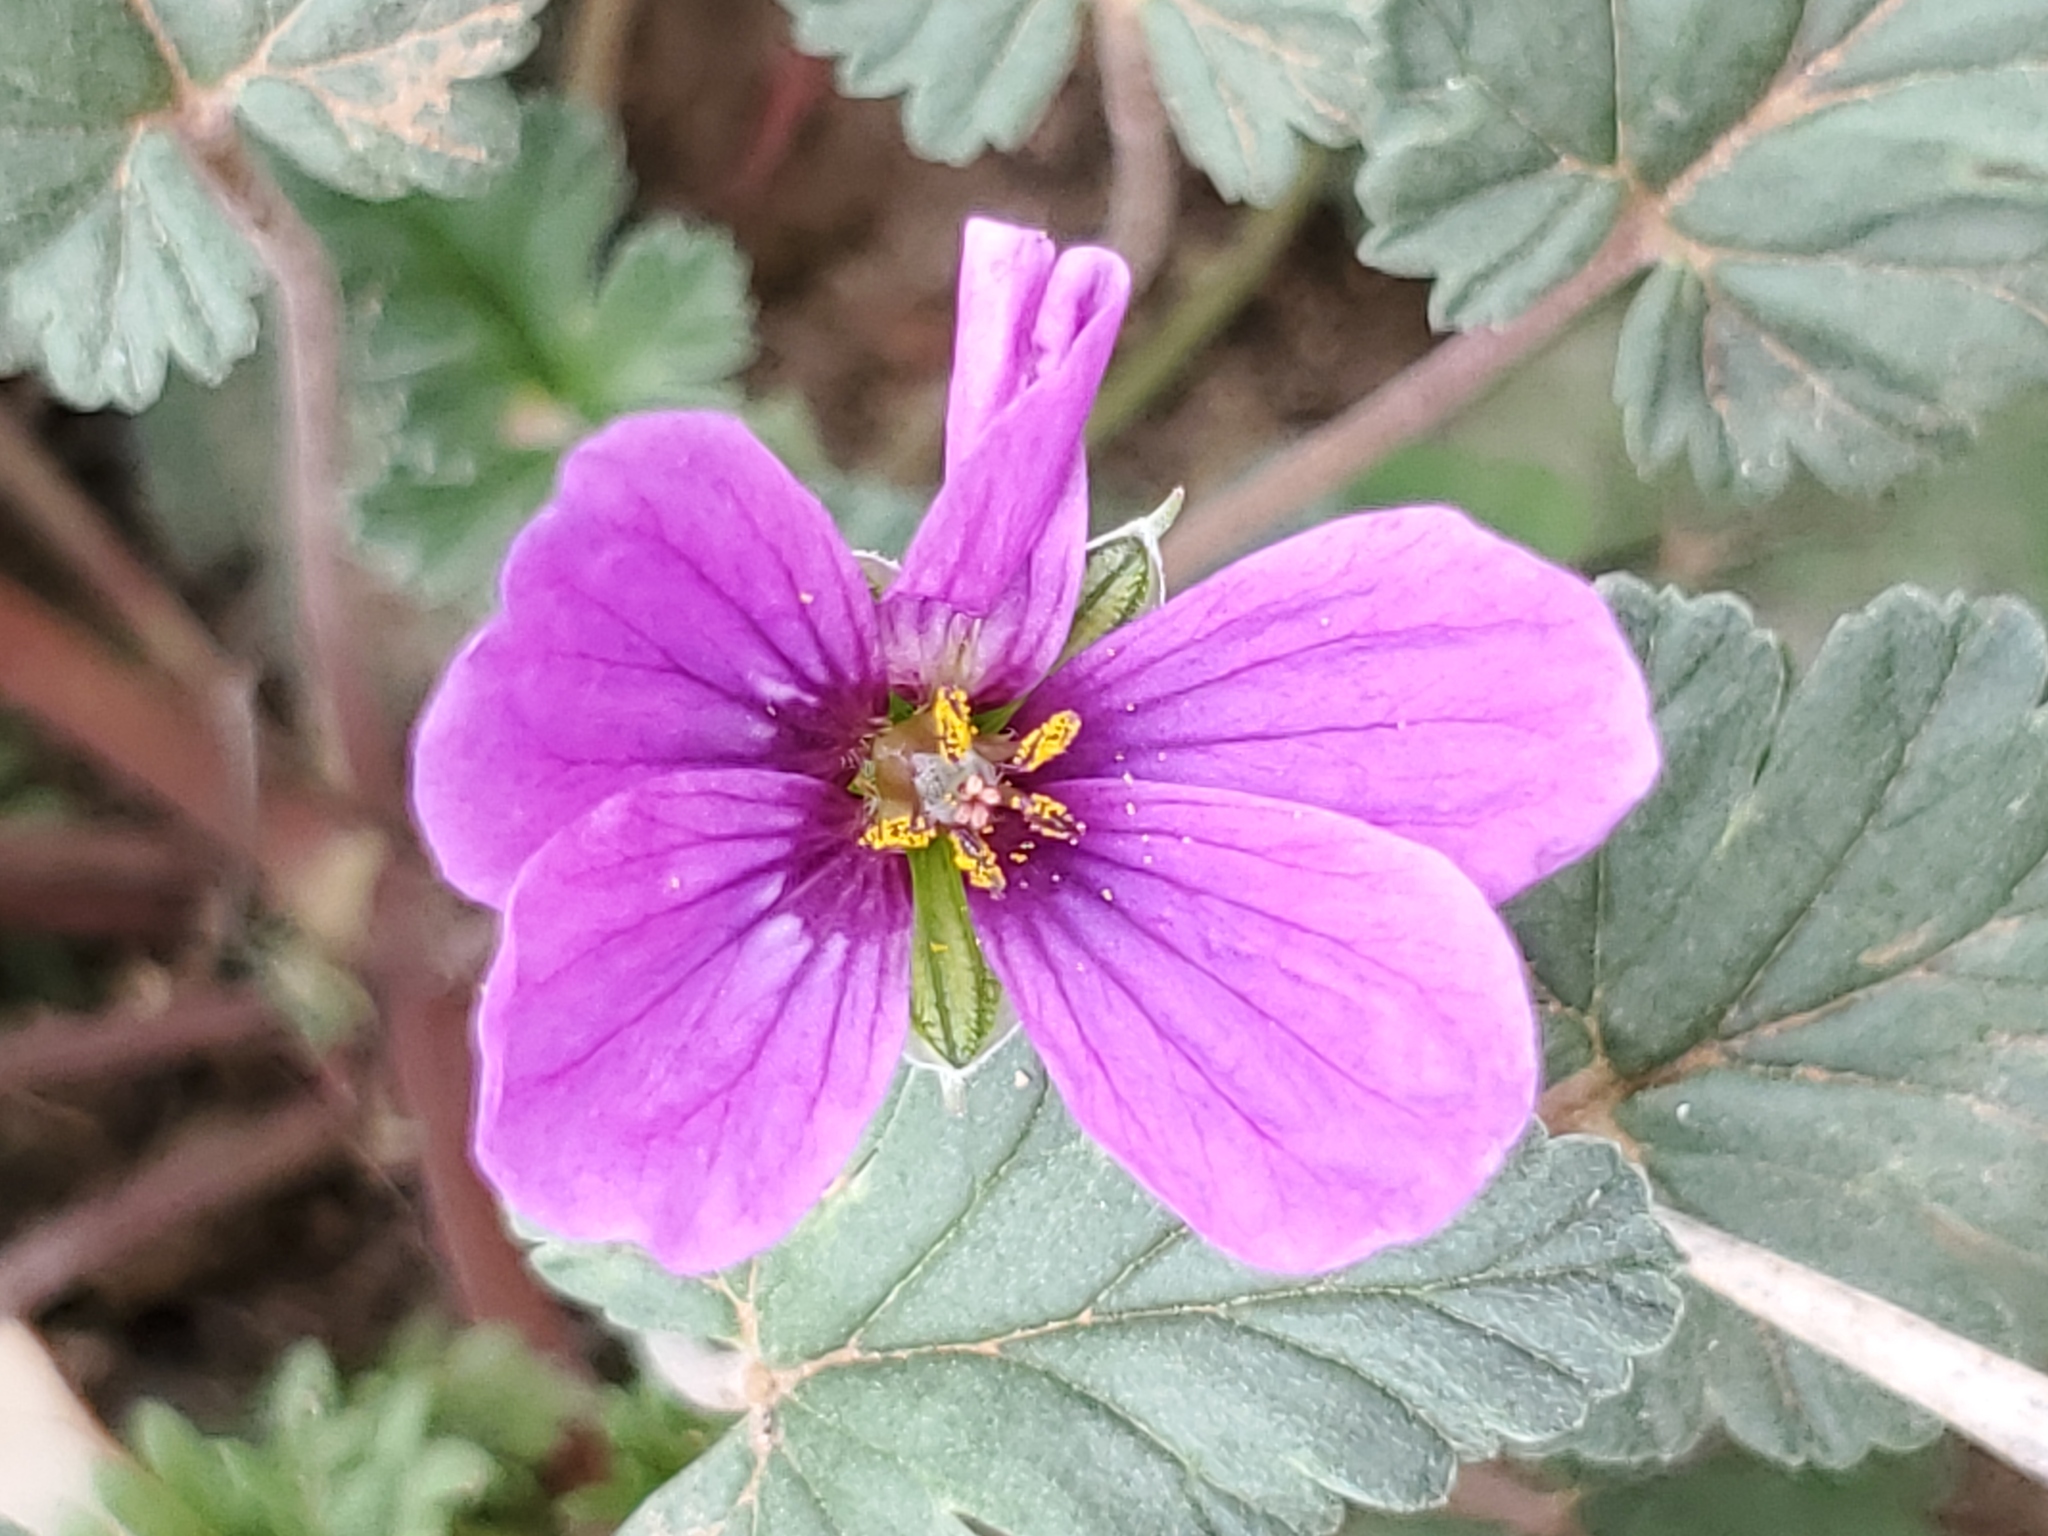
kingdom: Plantae
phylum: Tracheophyta
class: Magnoliopsida
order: Geraniales
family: Geraniaceae
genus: Erodium
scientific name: Erodium texanum
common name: Texas stork's-bill
